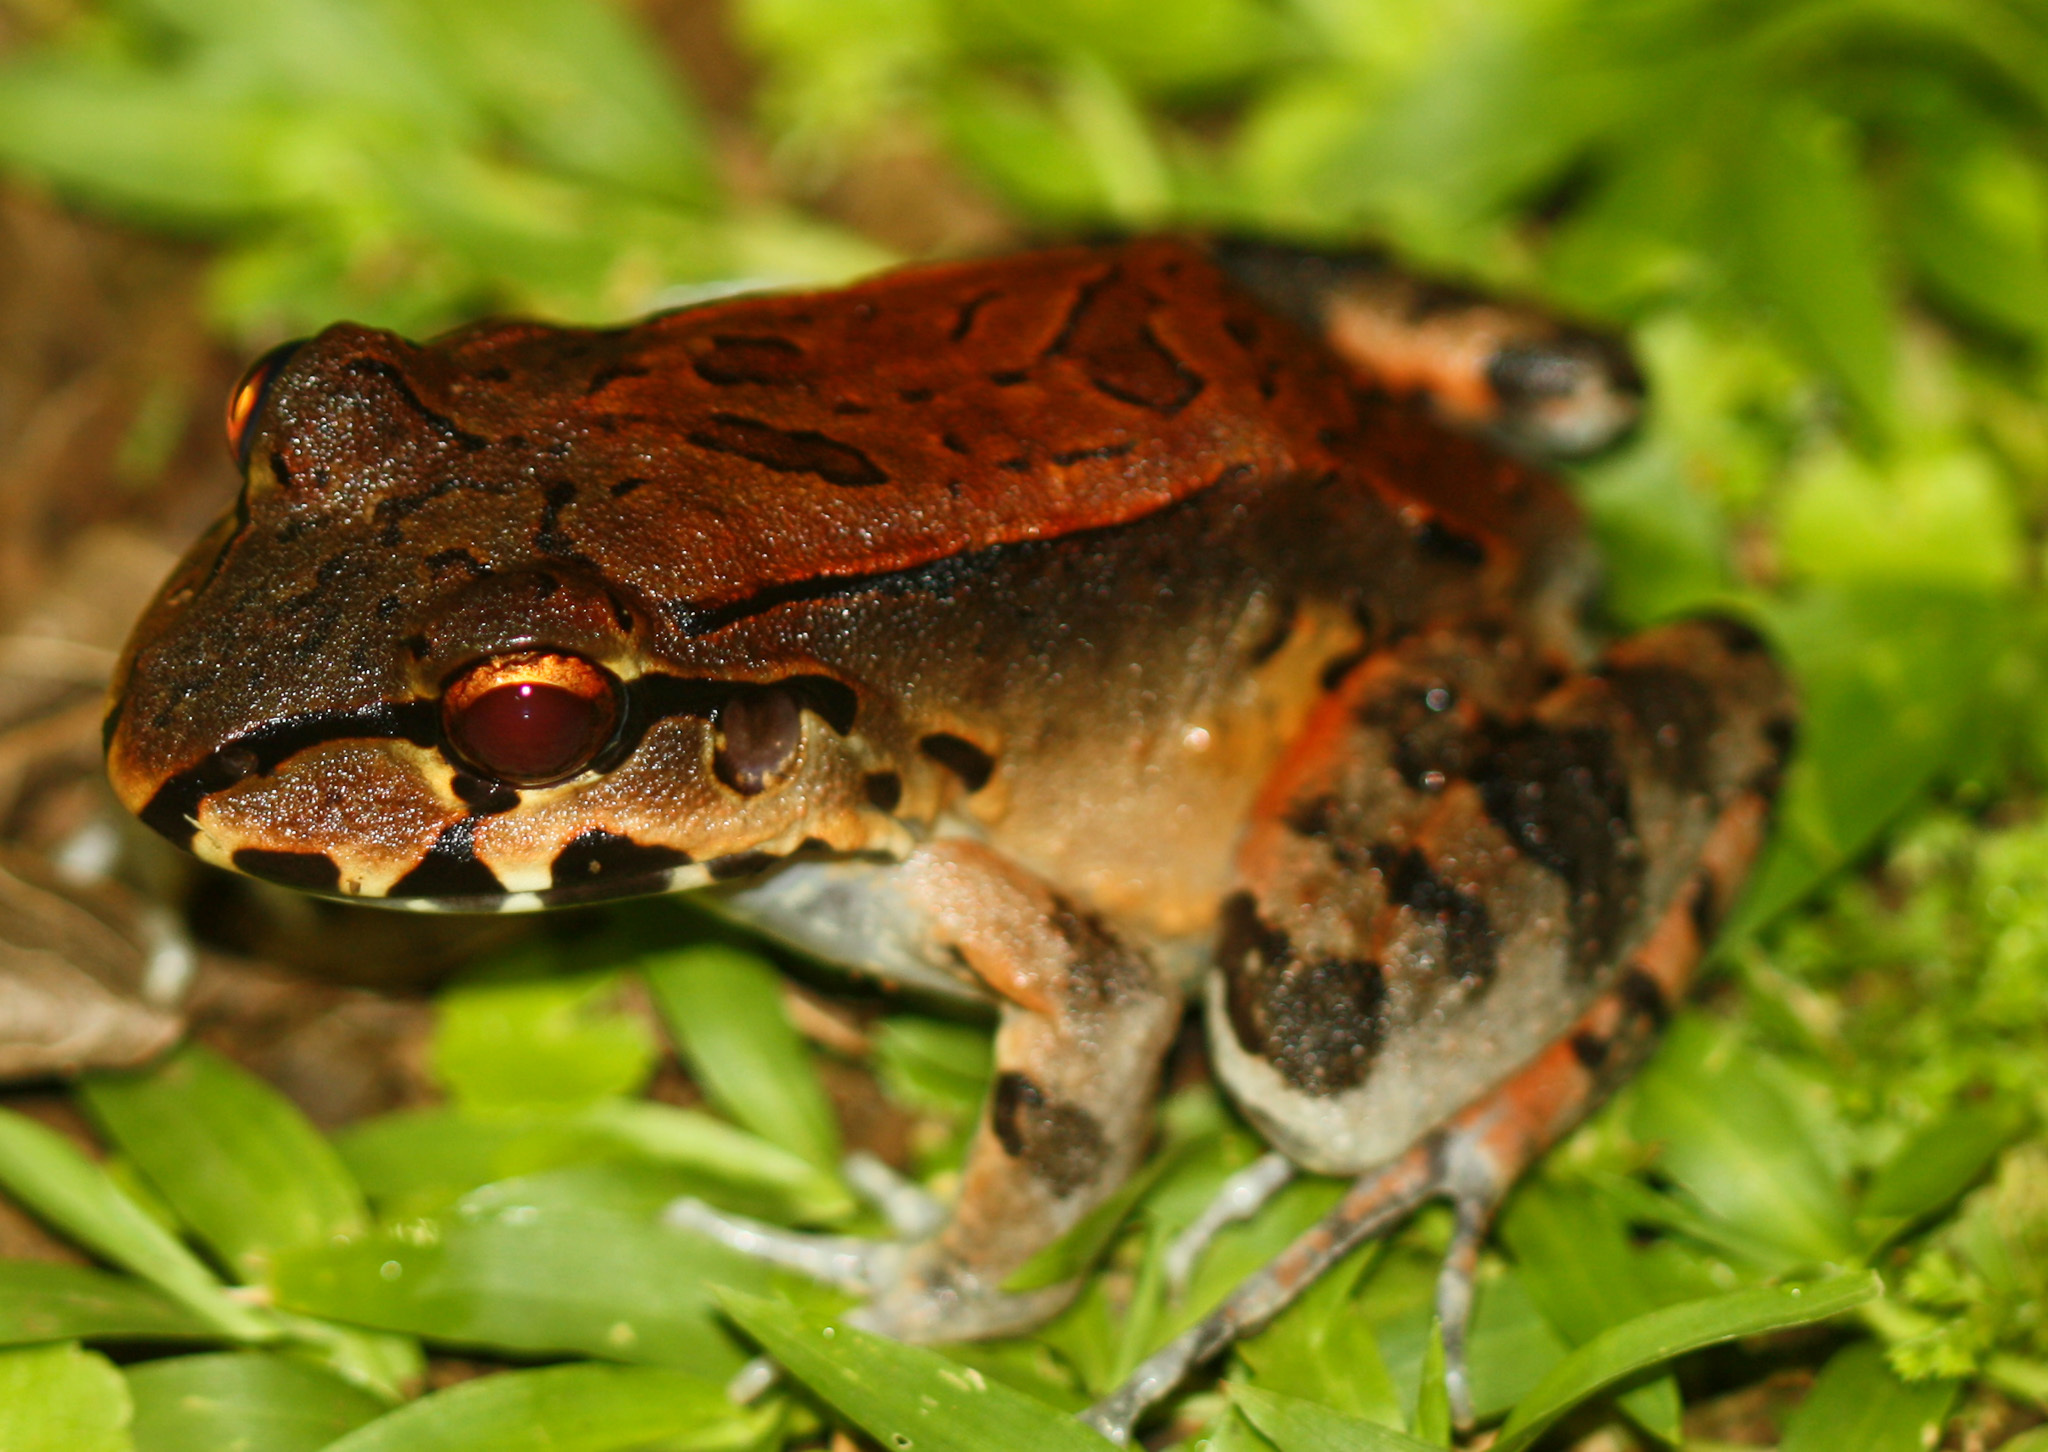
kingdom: Animalia
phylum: Chordata
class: Amphibia
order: Anura
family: Leptodactylidae
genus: Leptodactylus
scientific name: Leptodactylus savagei
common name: Savage's thin-toed frog
